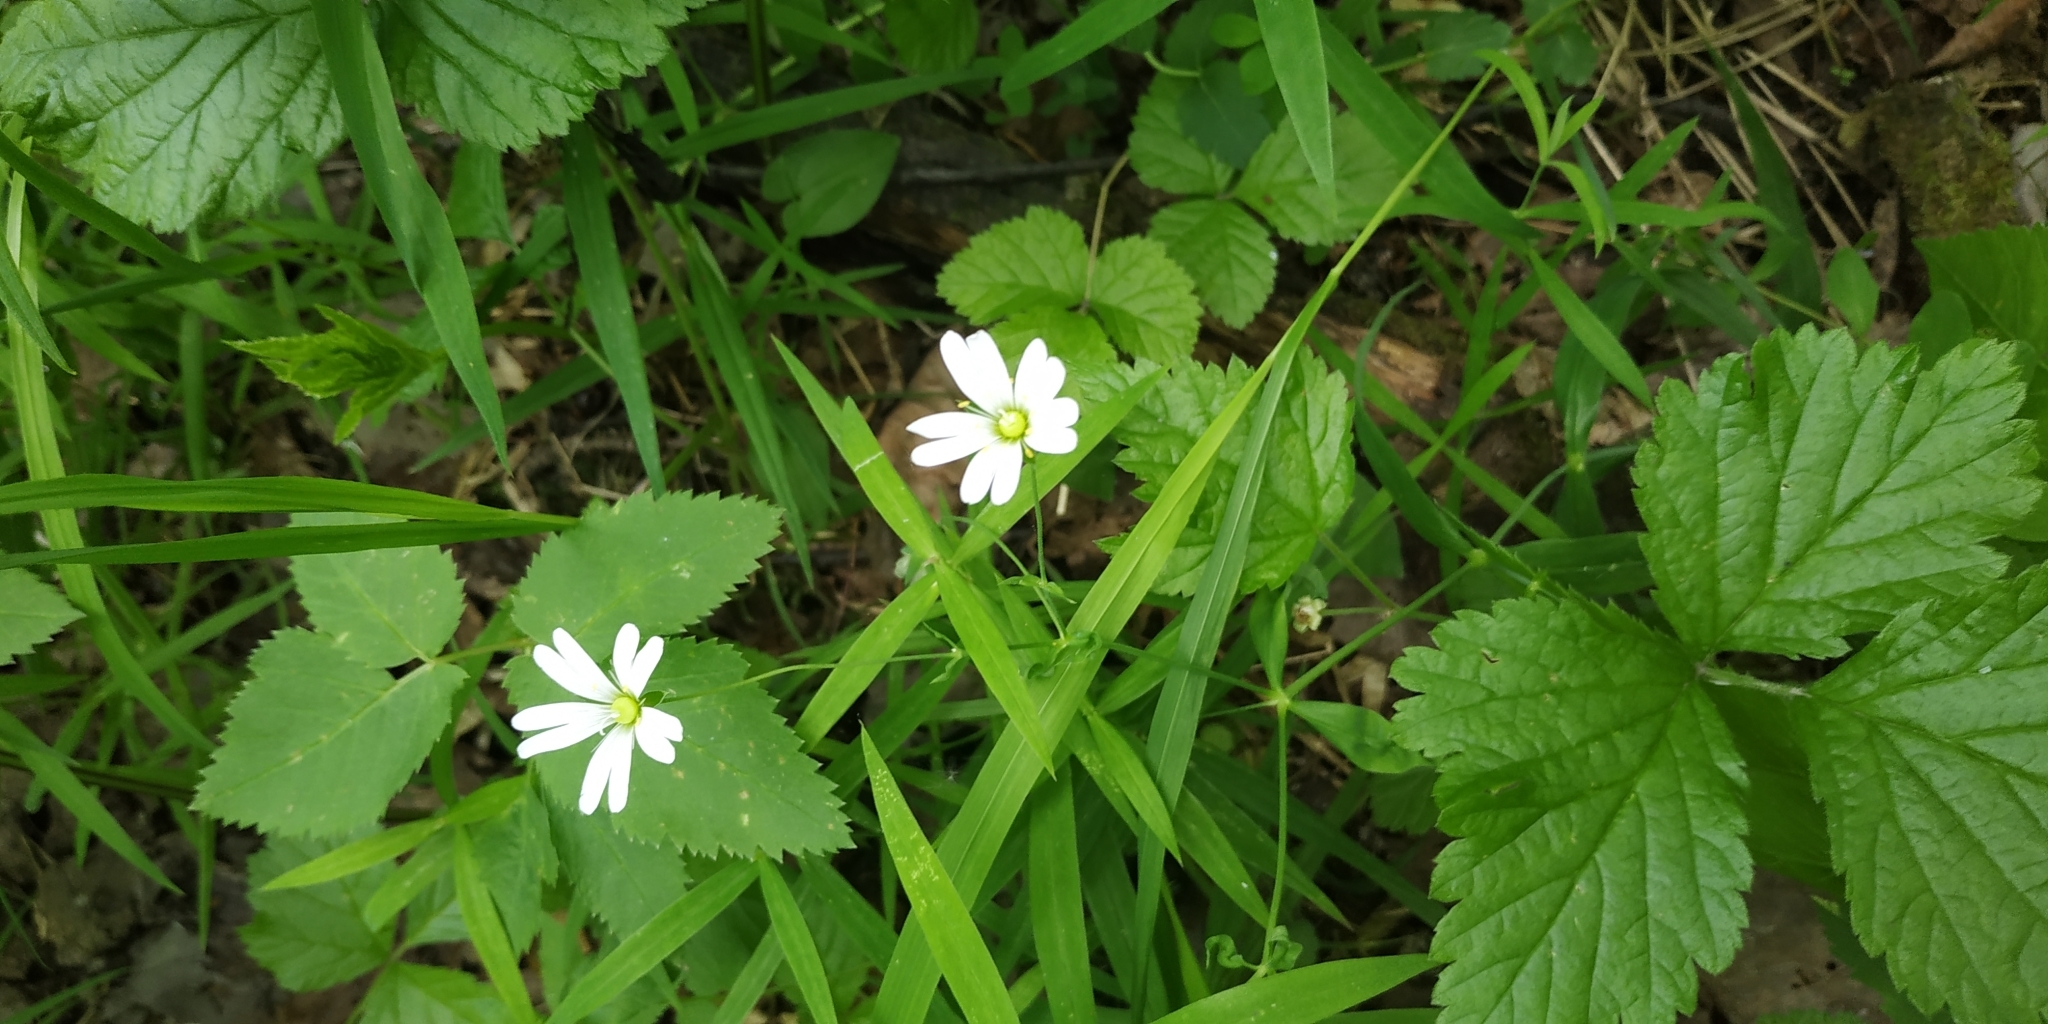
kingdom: Plantae
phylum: Tracheophyta
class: Magnoliopsida
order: Caryophyllales
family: Caryophyllaceae
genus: Rabelera
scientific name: Rabelera holostea
